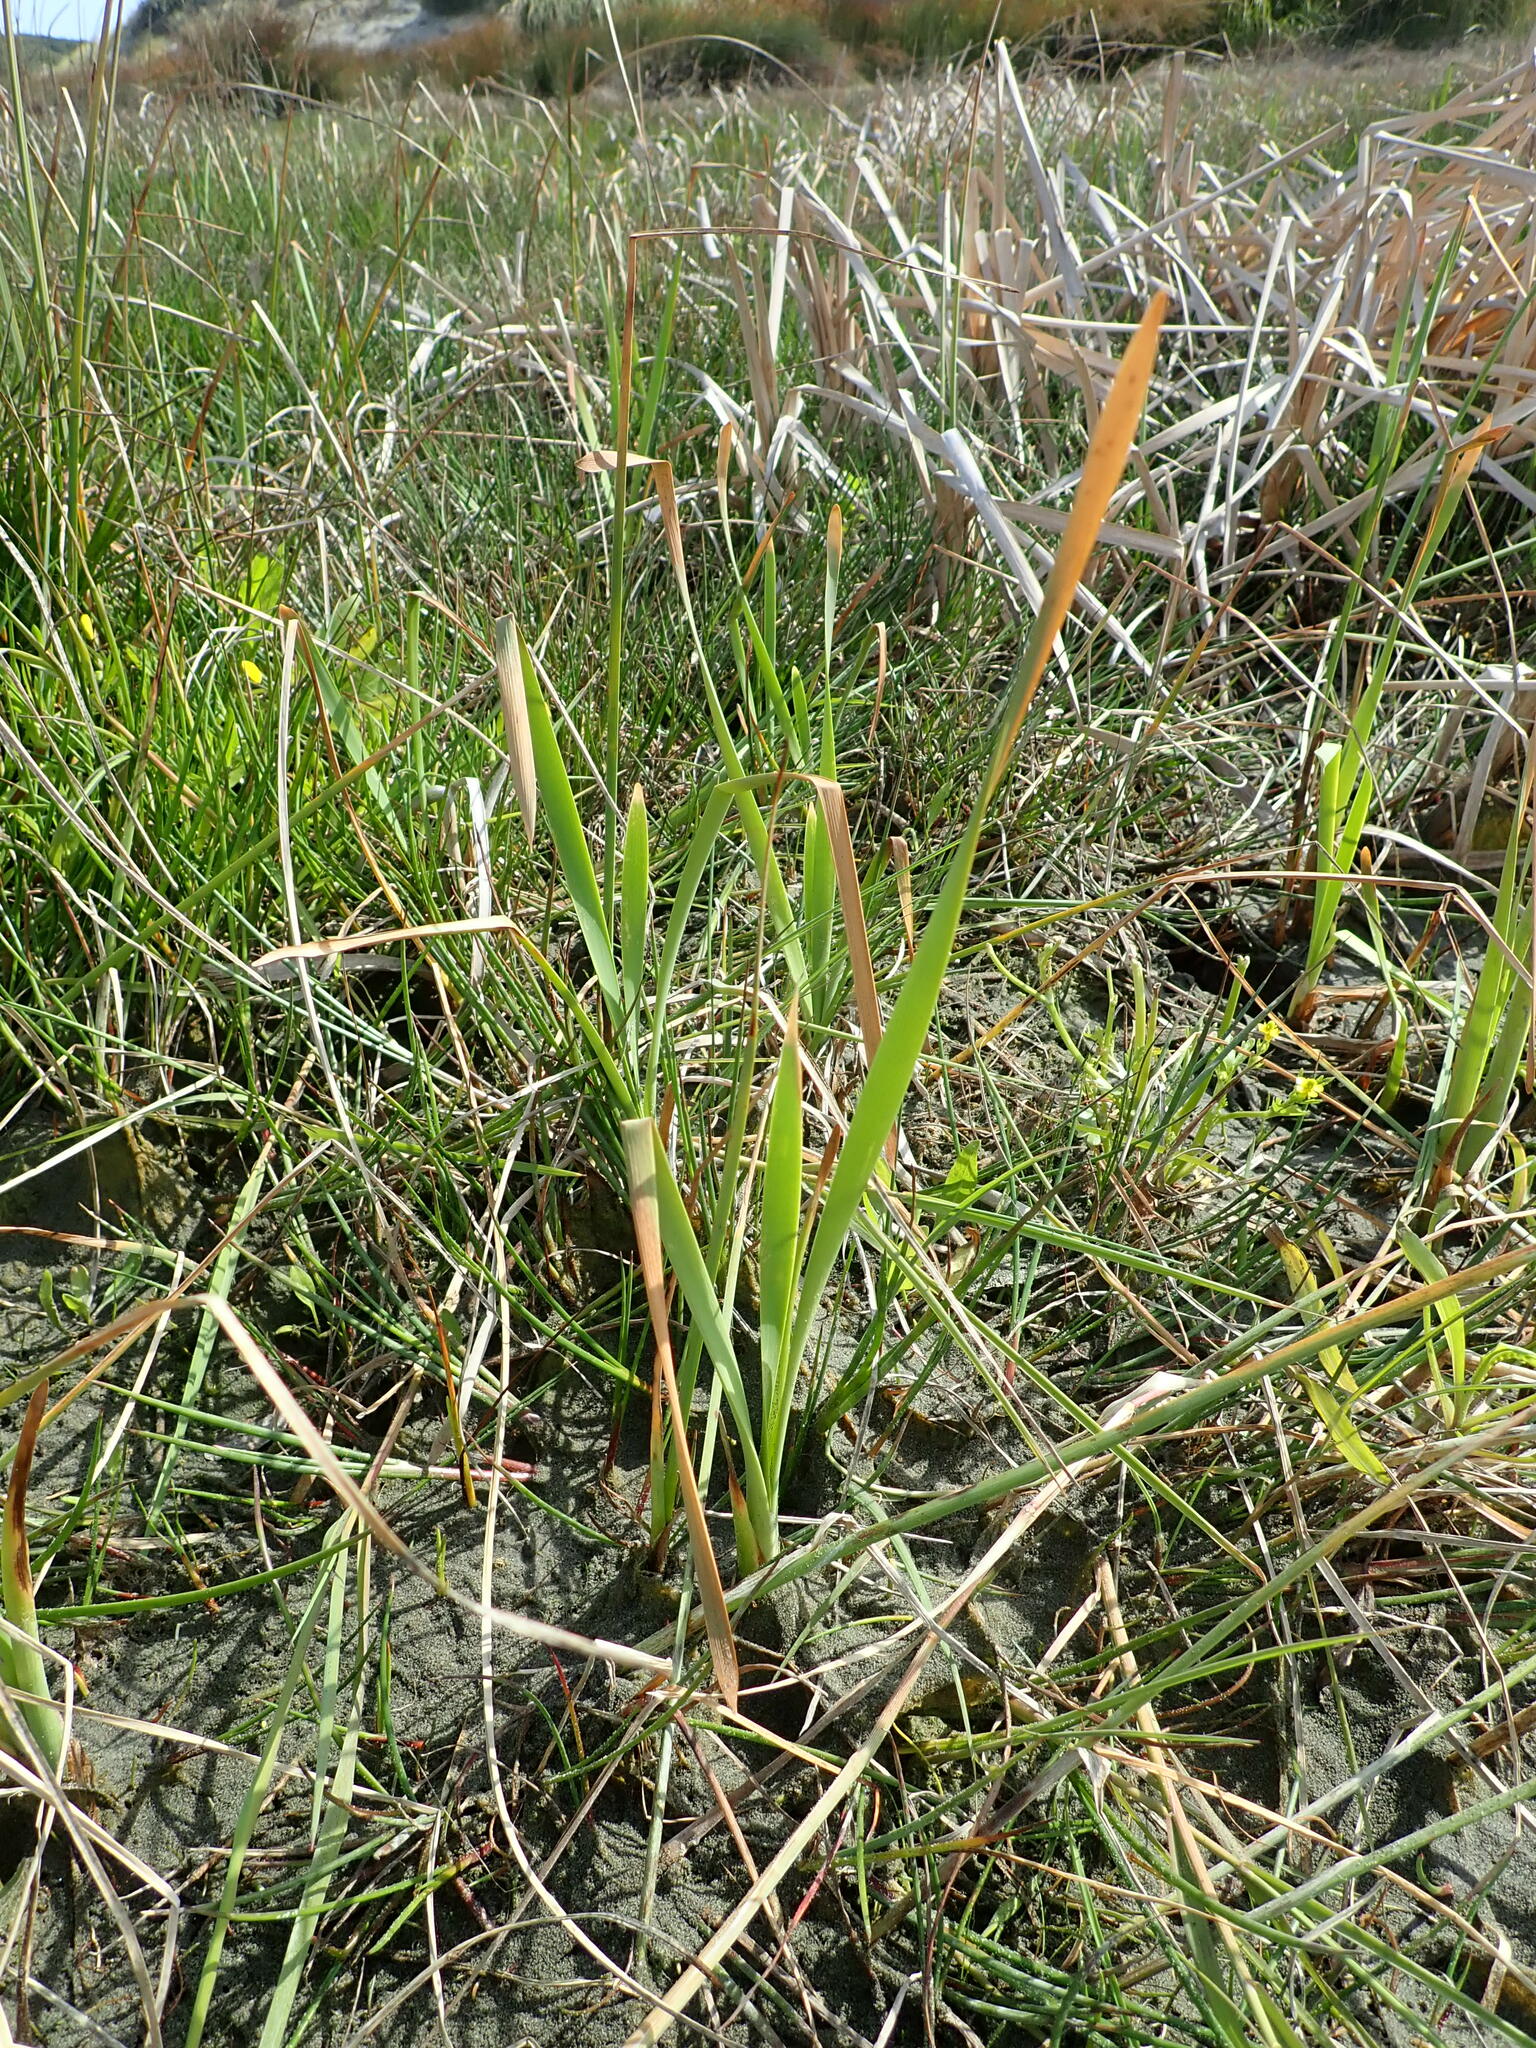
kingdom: Plantae
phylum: Tracheophyta
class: Liliopsida
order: Poales
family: Typhaceae
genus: Typha
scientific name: Typha orientalis
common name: Bullrush
